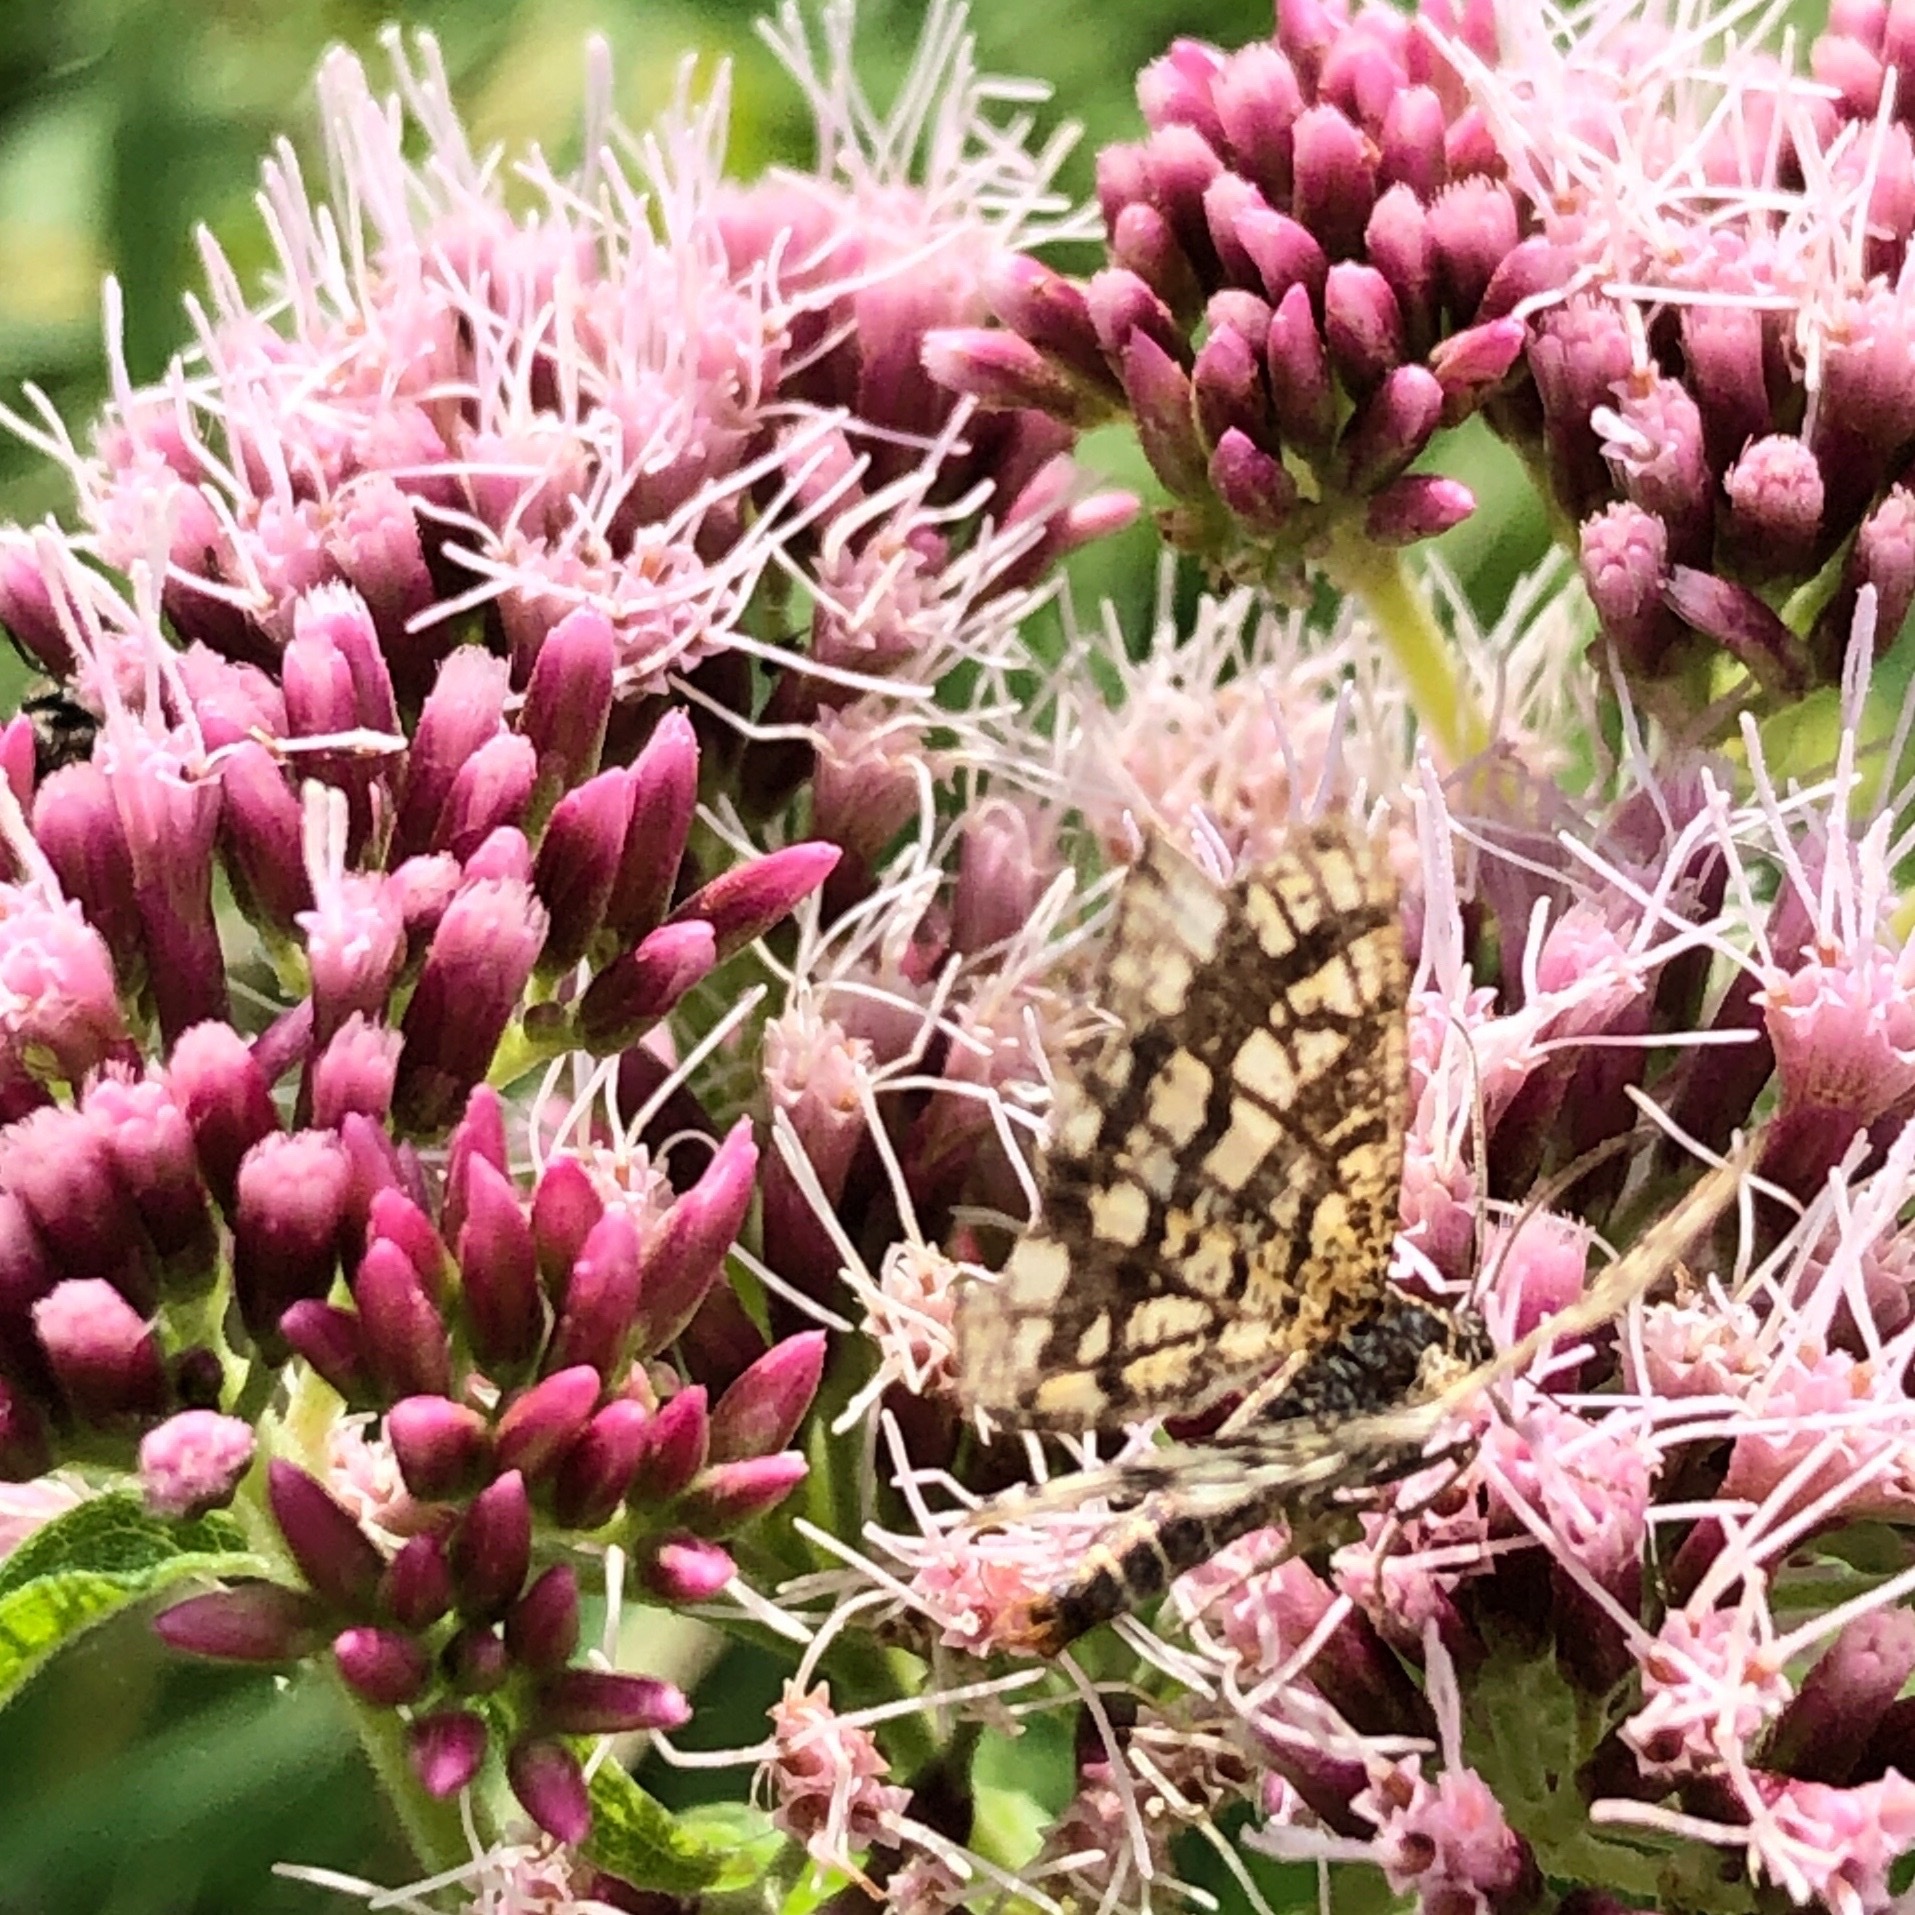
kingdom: Animalia
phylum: Arthropoda
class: Insecta
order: Lepidoptera
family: Geometridae
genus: Chiasmia
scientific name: Chiasmia clathrata
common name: Latticed heath
